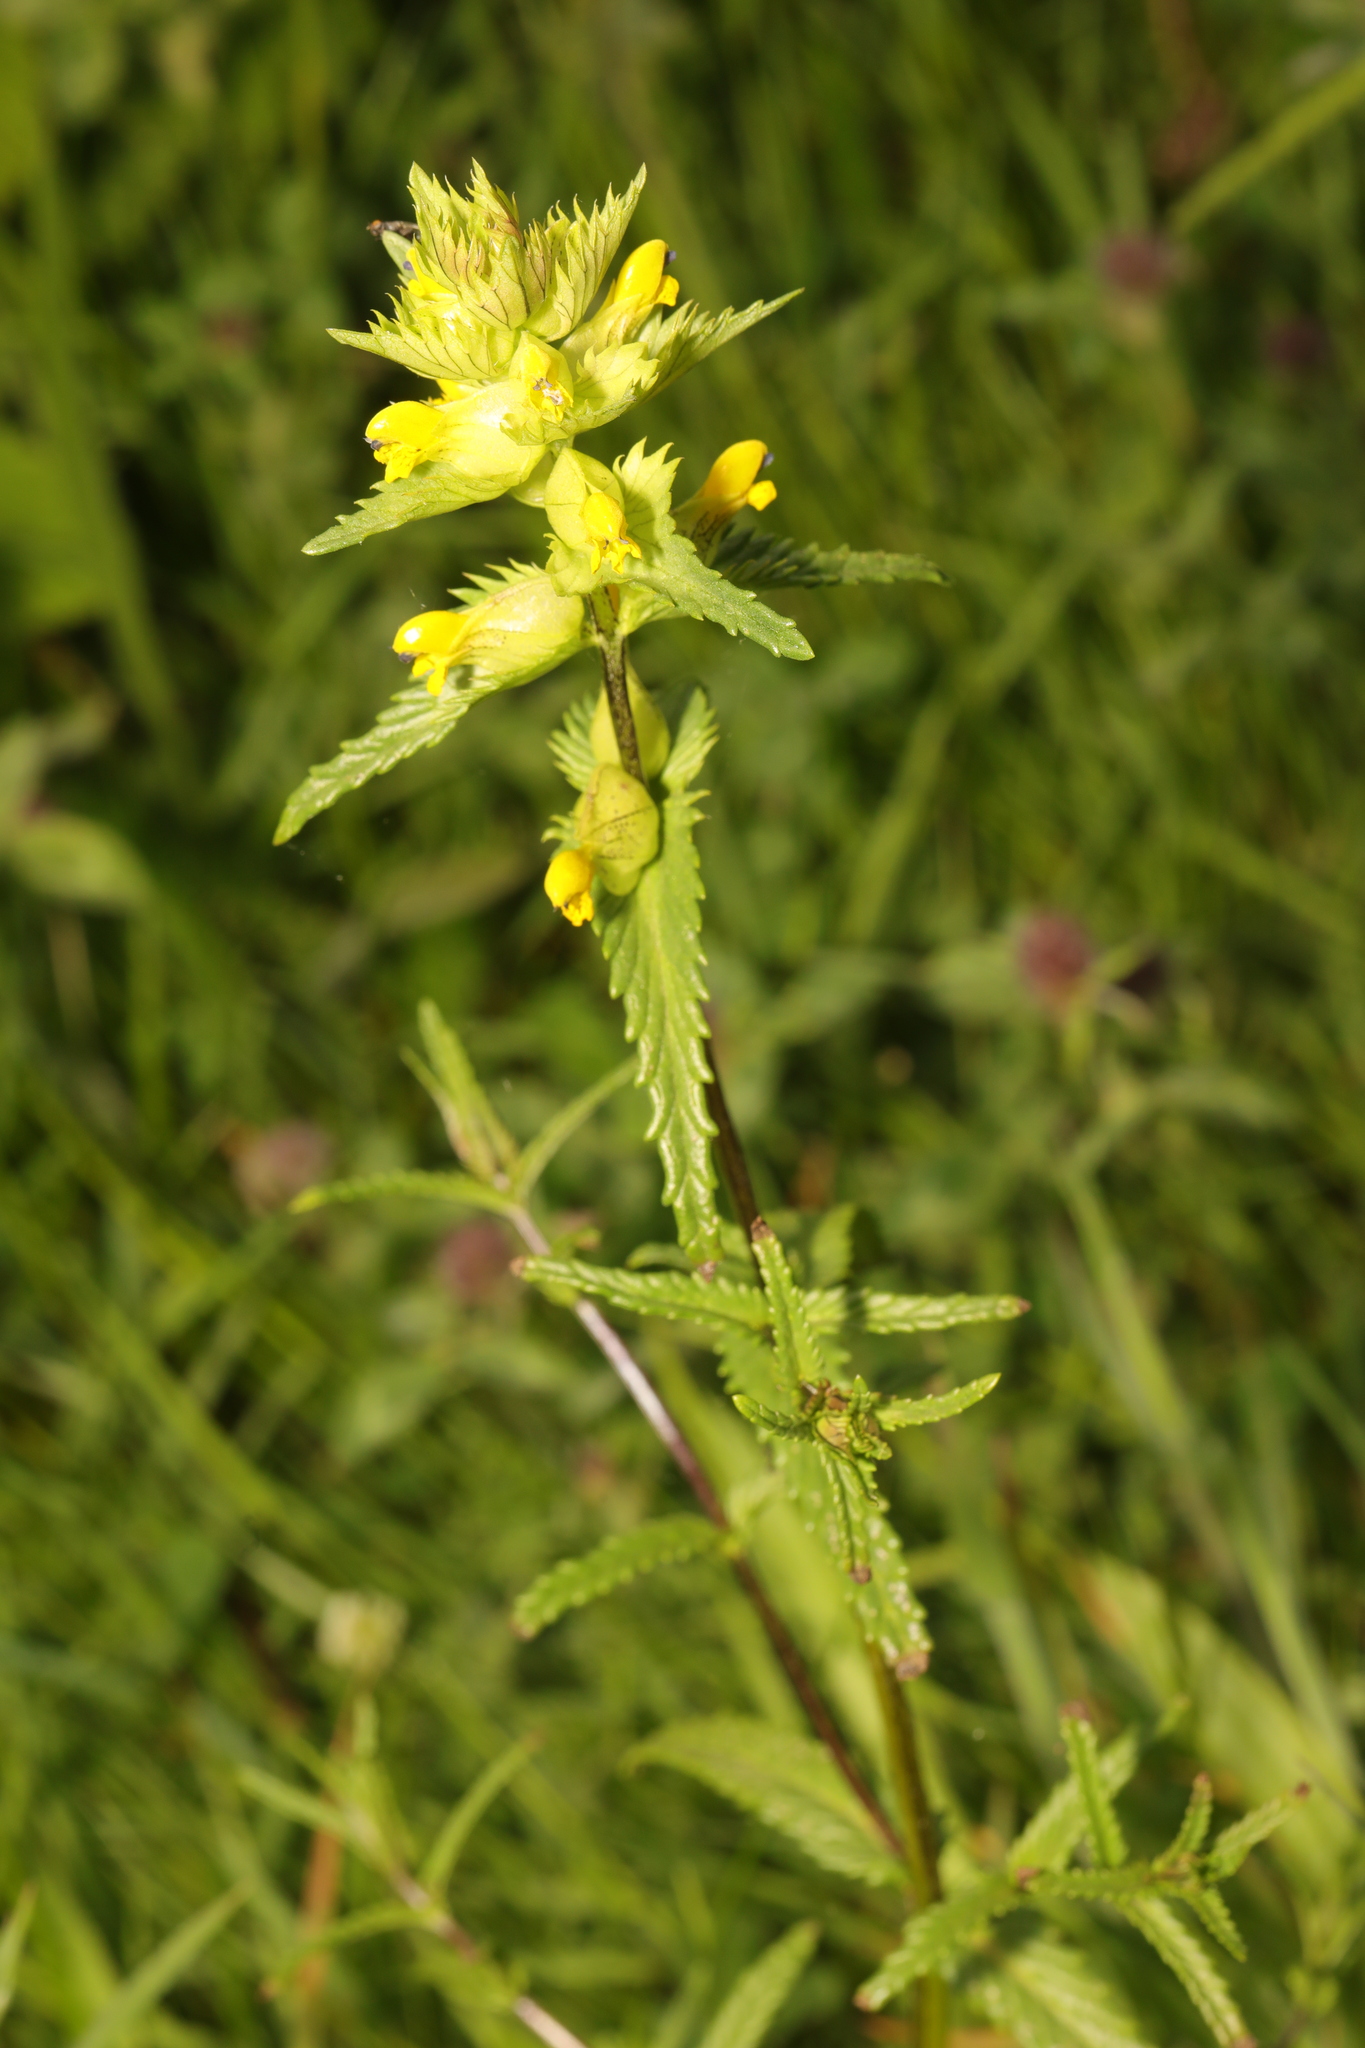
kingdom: Plantae
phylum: Tracheophyta
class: Magnoliopsida
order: Lamiales
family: Orobanchaceae
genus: Rhinanthus
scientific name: Rhinanthus minor
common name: Yellow-rattle
